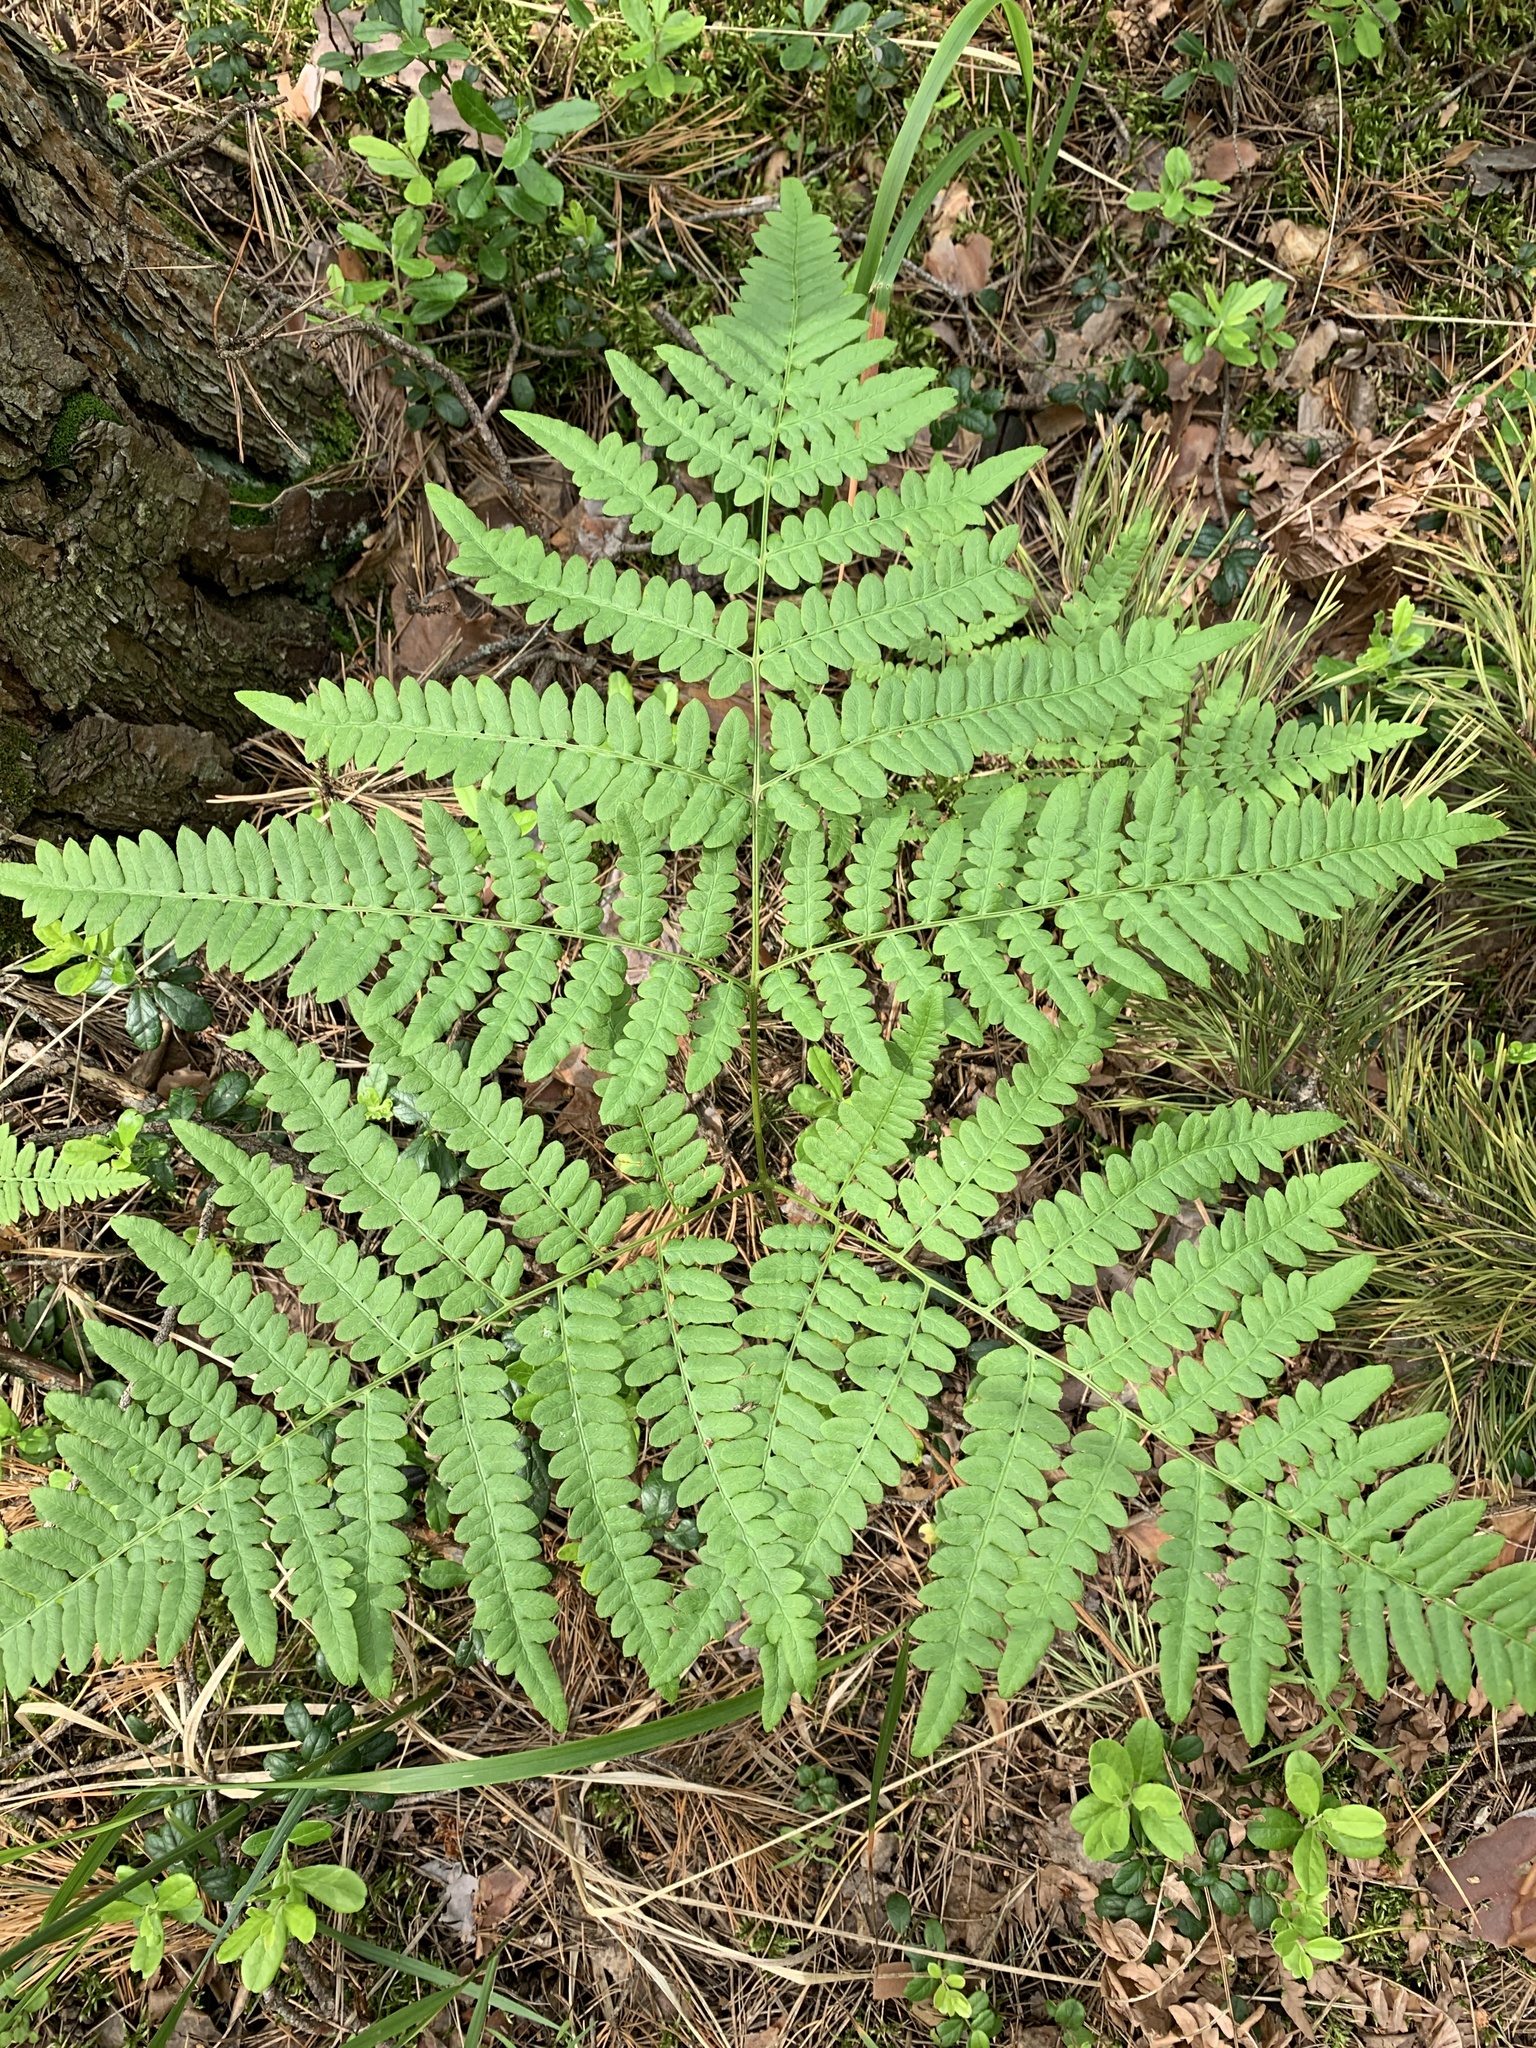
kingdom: Plantae
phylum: Tracheophyta
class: Polypodiopsida
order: Polypodiales
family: Dennstaedtiaceae
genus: Pteridium
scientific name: Pteridium aquilinum
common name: Bracken
